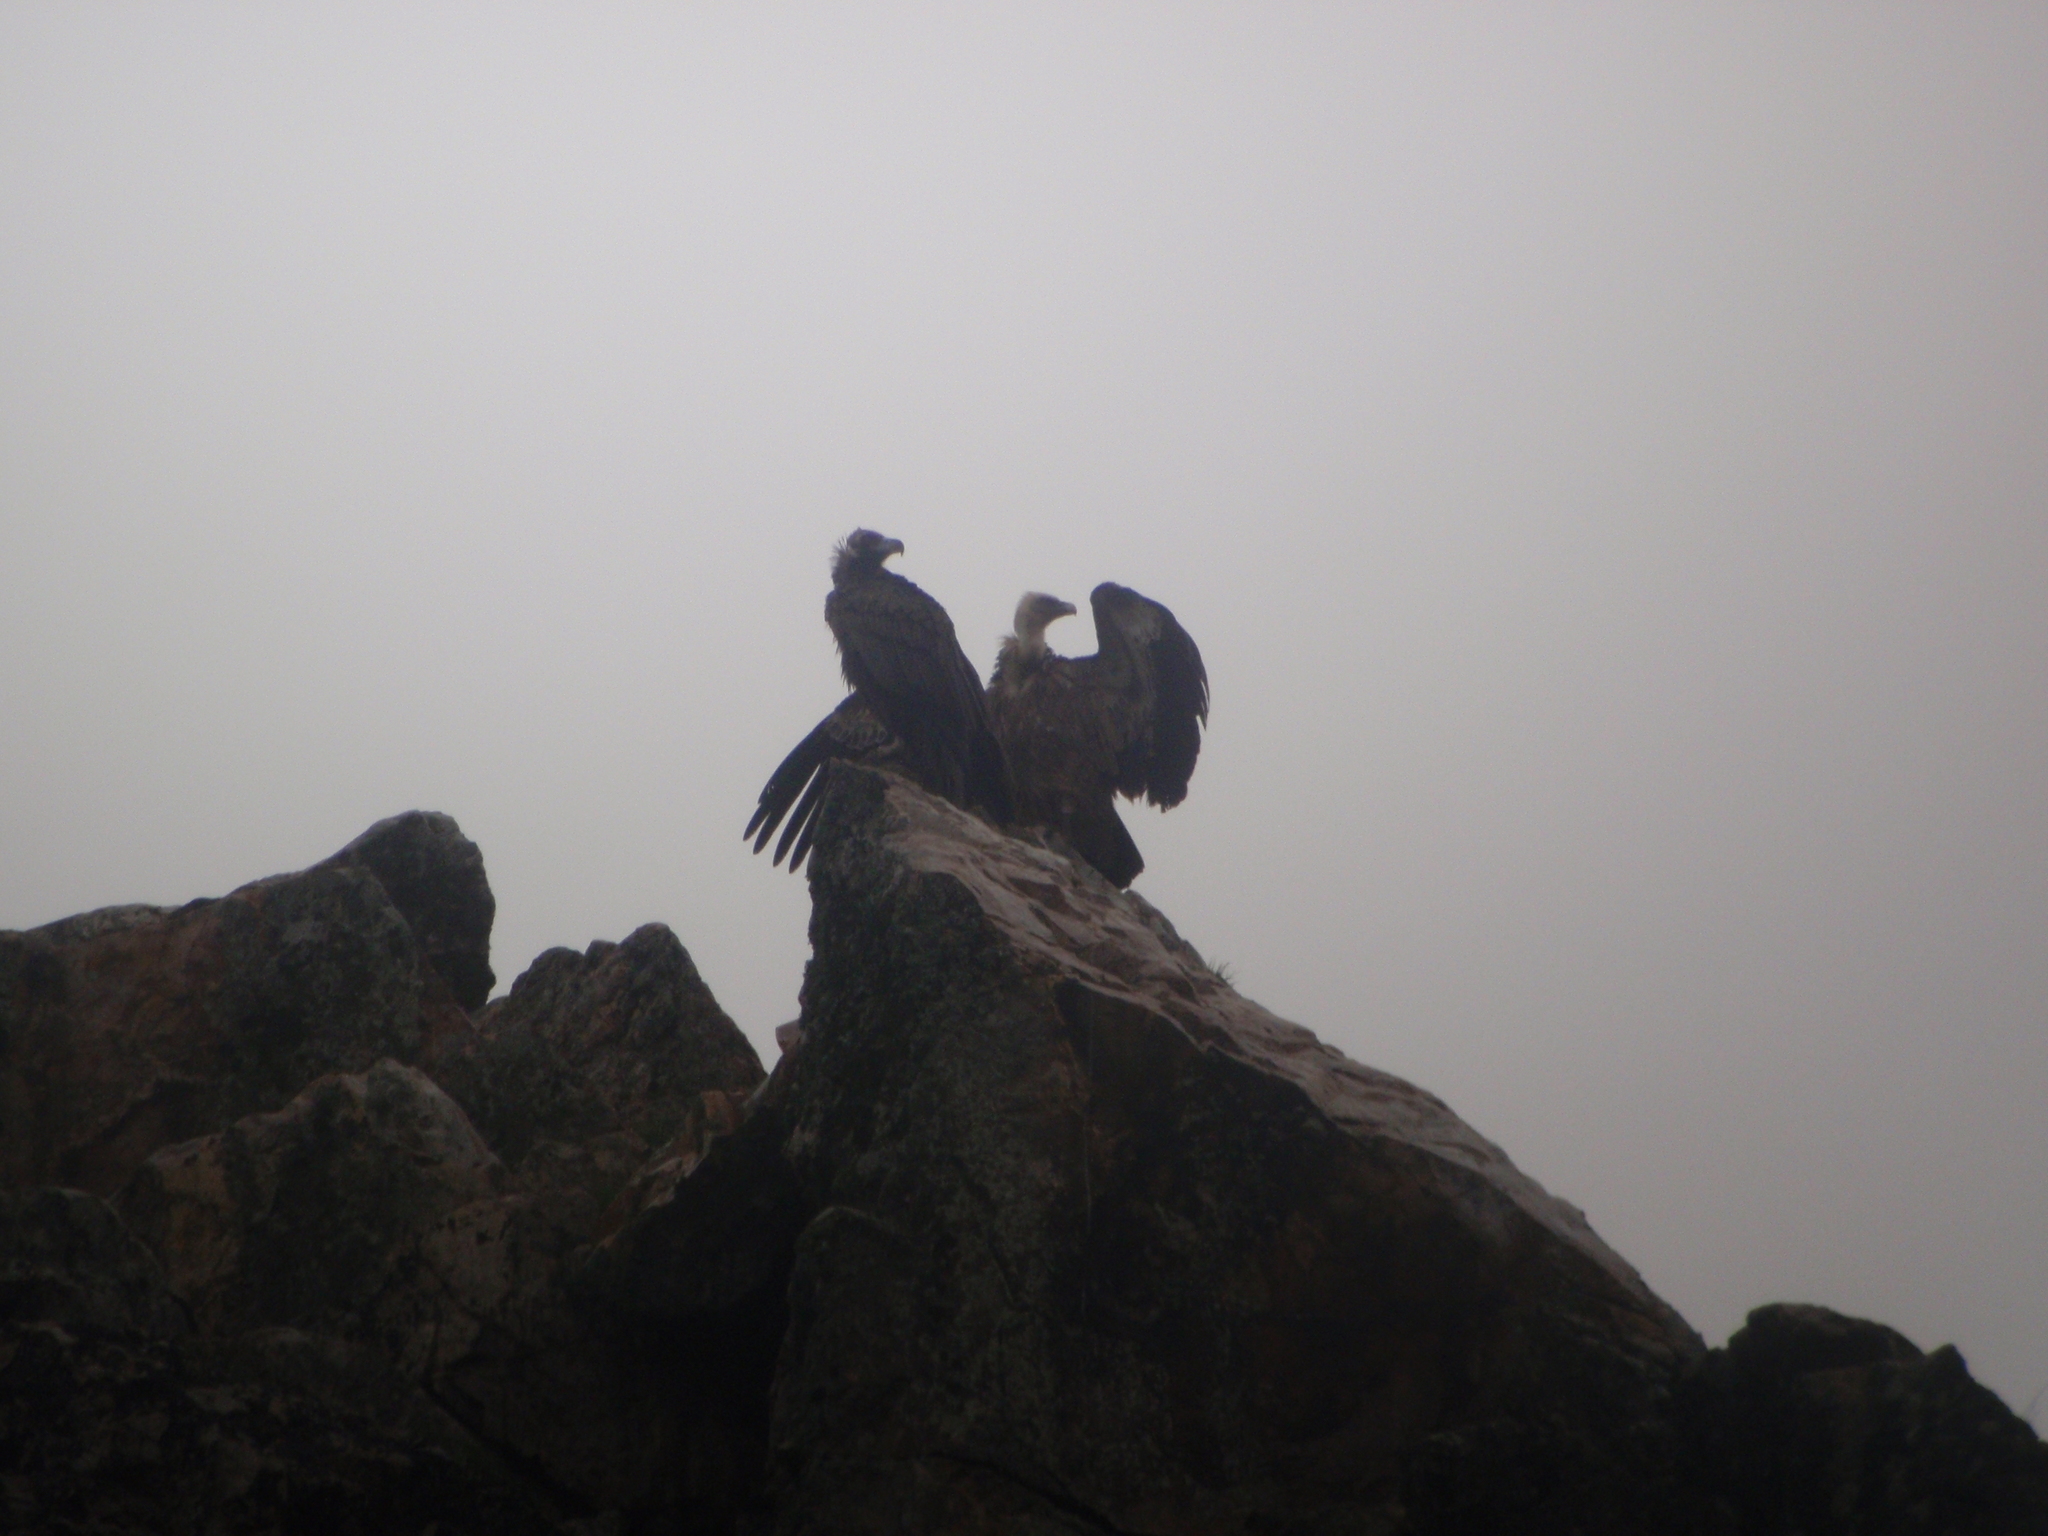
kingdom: Animalia
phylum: Chordata
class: Aves
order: Accipitriformes
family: Accipitridae
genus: Aegypius
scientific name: Aegypius monachus
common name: Cinereous vulture
